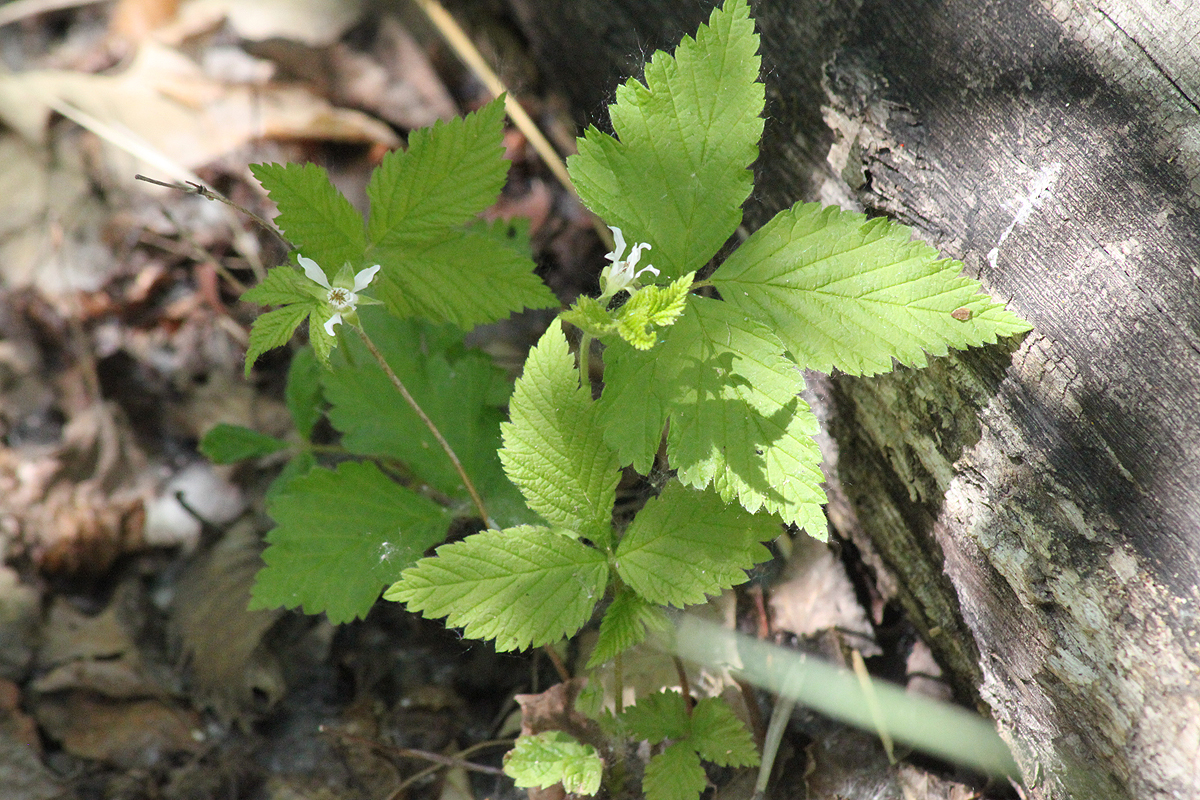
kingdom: Plantae
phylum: Tracheophyta
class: Magnoliopsida
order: Rosales
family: Rosaceae
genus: Rubus
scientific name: Rubus pubescens
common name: Dwarf raspberry
